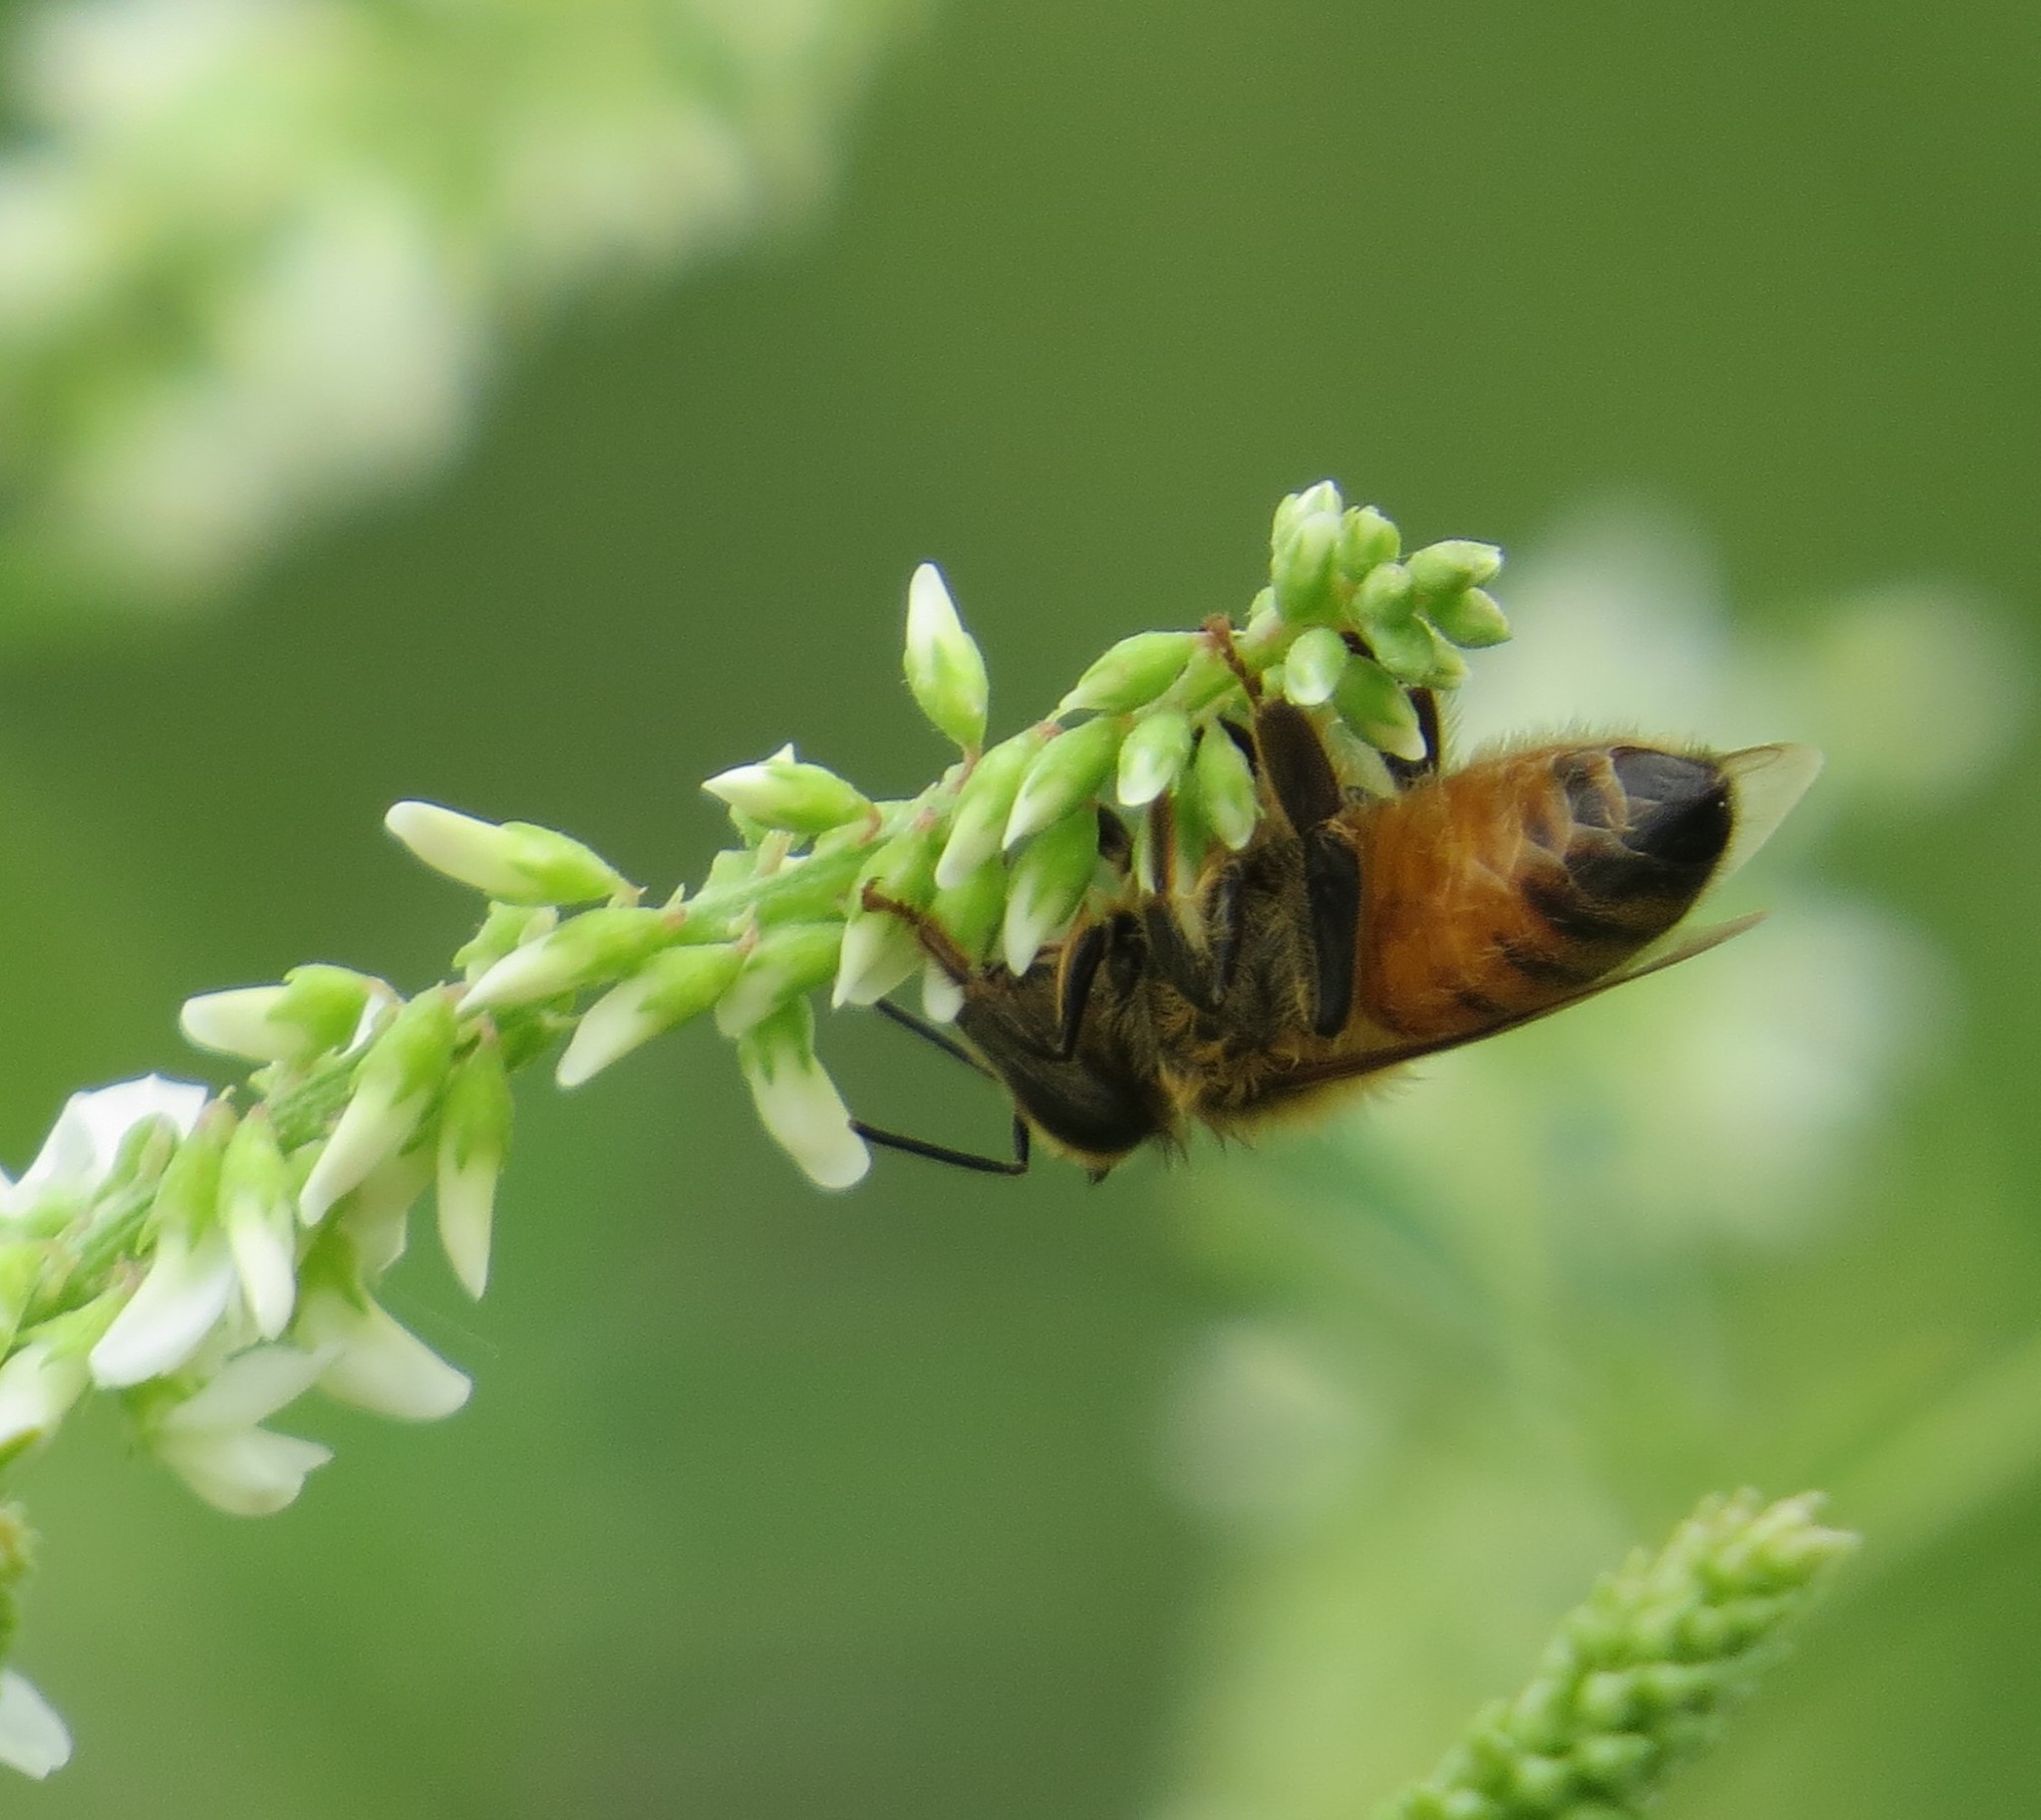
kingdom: Animalia
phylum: Arthropoda
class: Insecta
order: Hymenoptera
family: Apidae
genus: Apis
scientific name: Apis mellifera
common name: Honey bee
